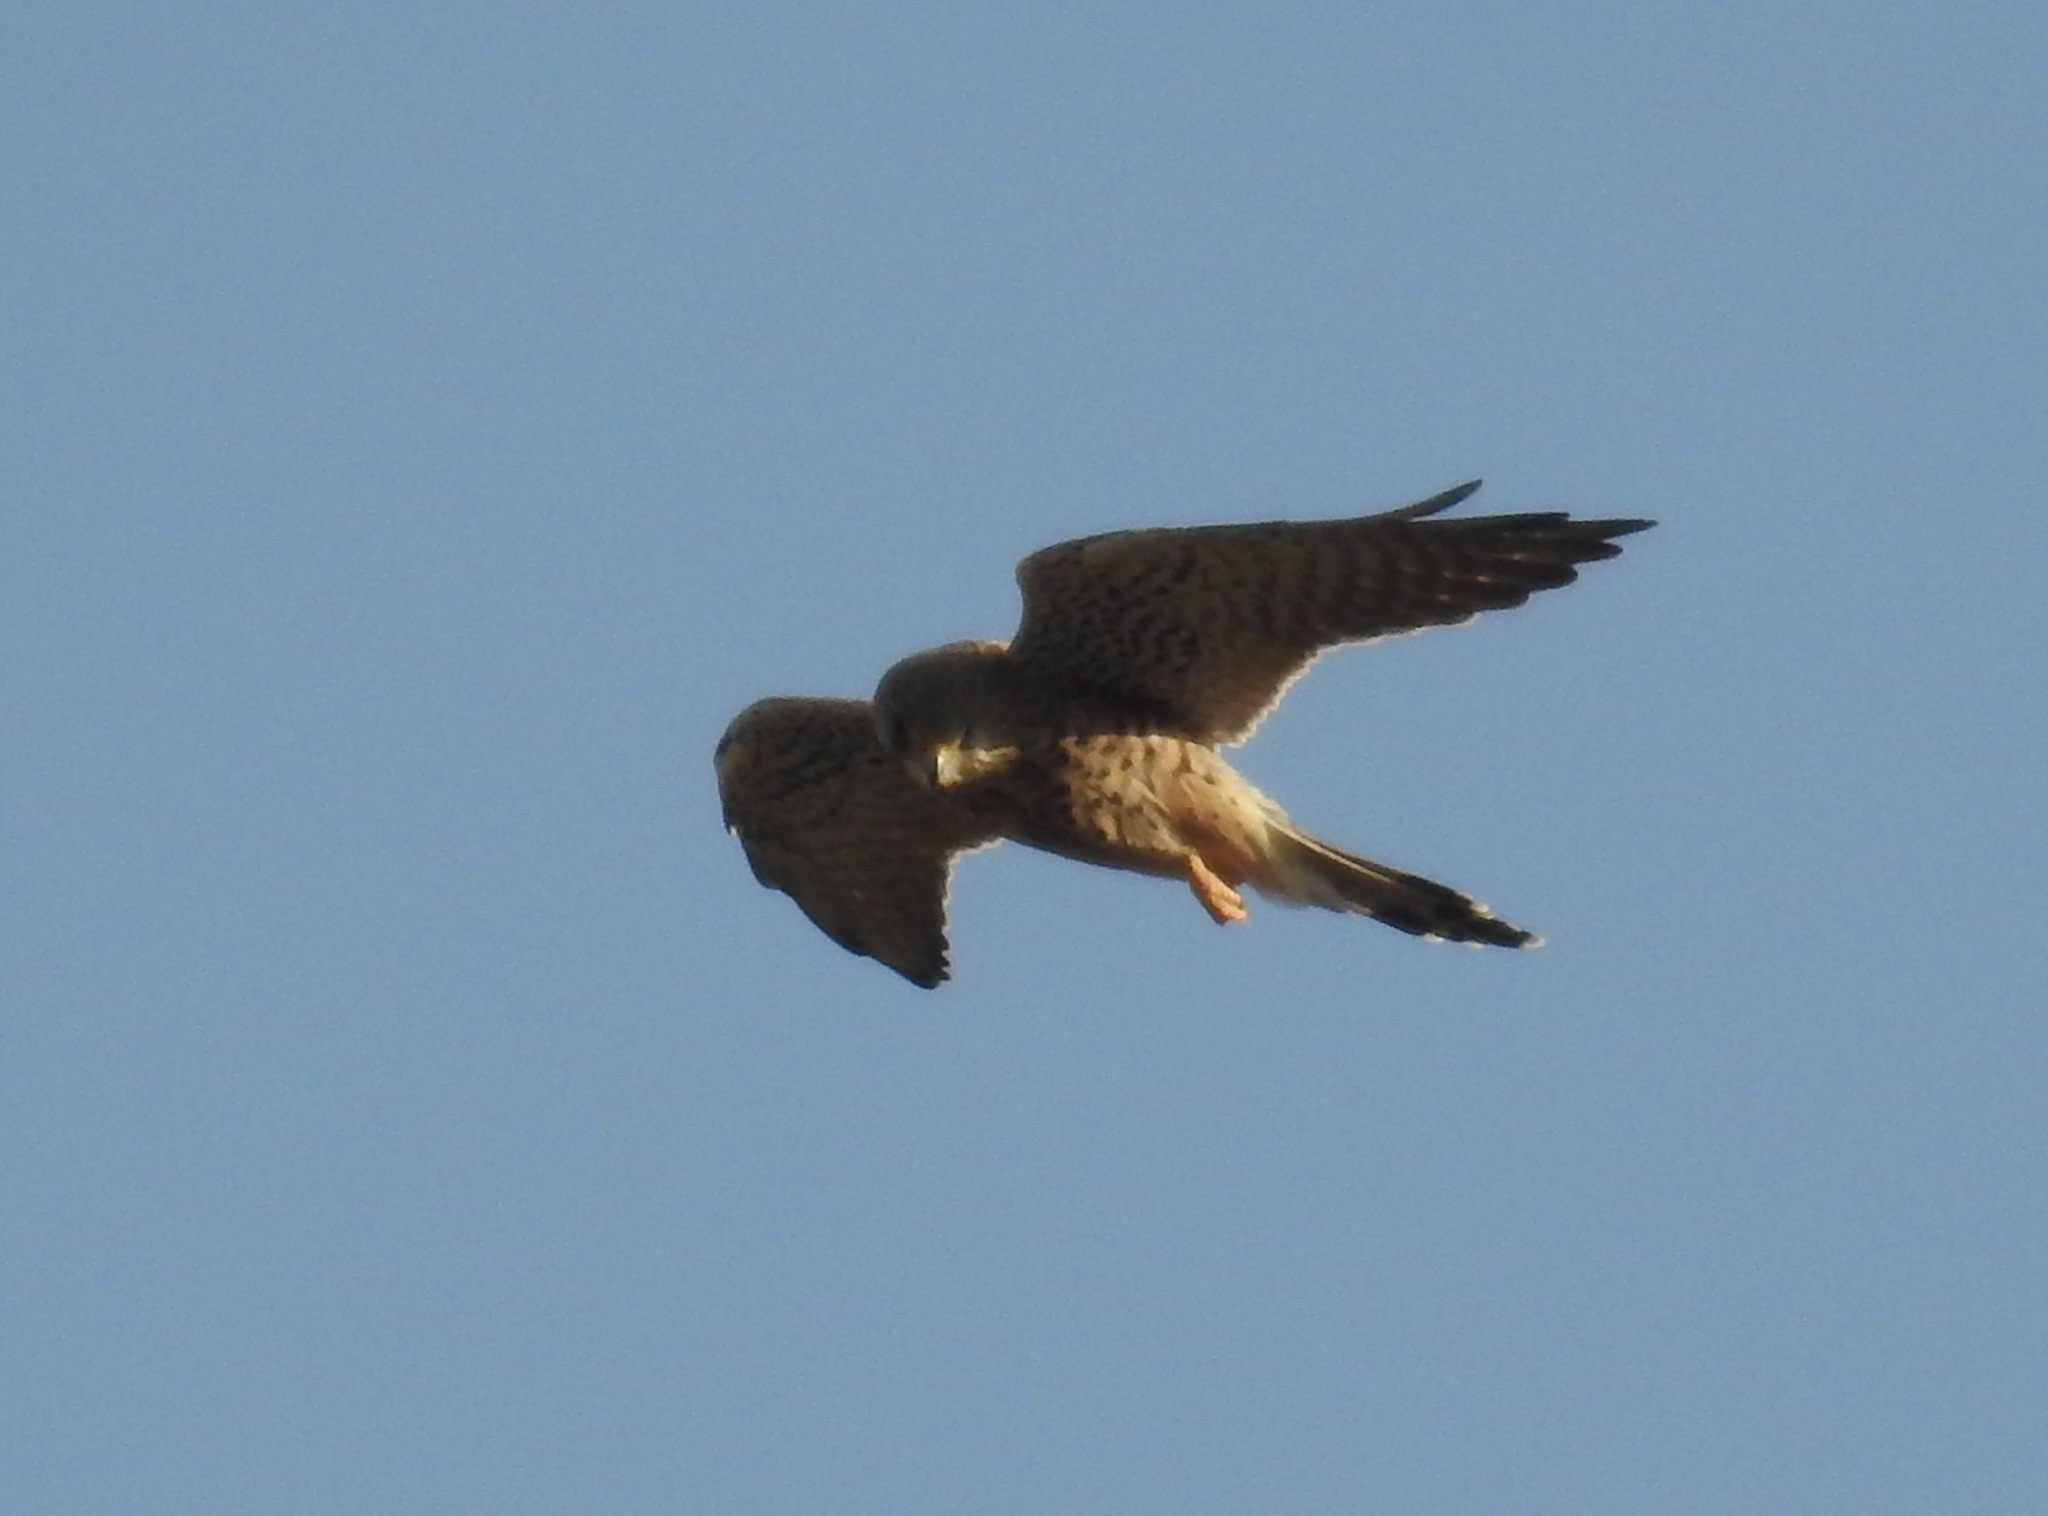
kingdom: Animalia
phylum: Chordata
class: Aves
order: Falconiformes
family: Falconidae
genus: Falco
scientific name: Falco tinnunculus
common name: Common kestrel
